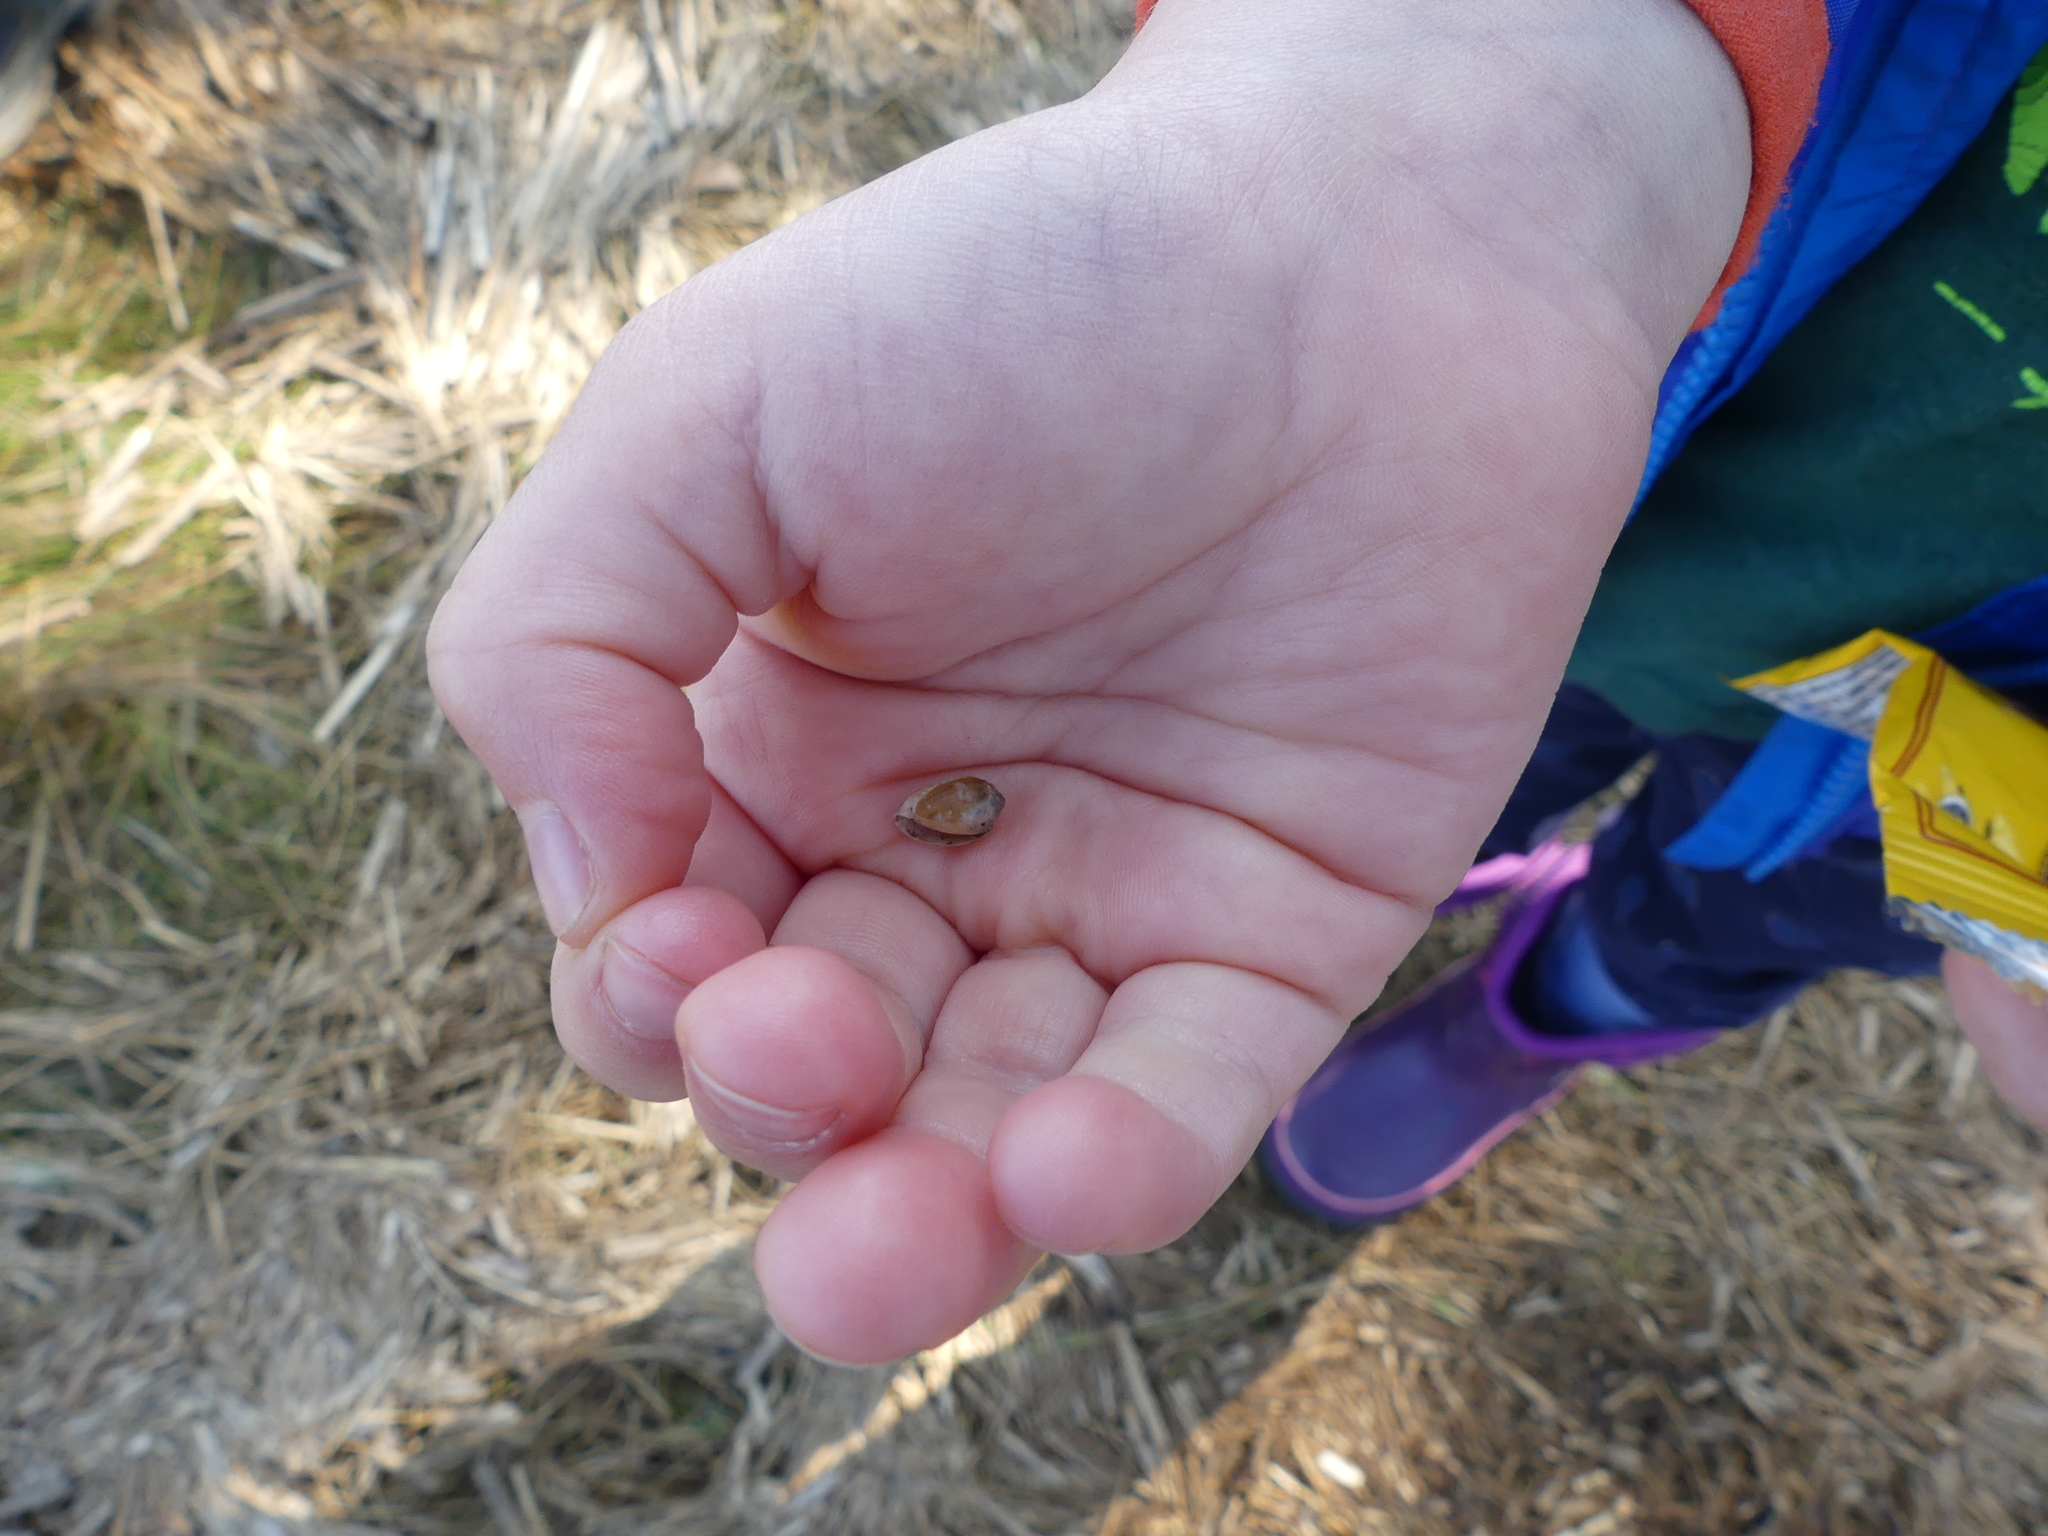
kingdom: Animalia
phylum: Mollusca
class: Gastropoda
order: Ellobiida
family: Ellobiidae
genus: Melampus
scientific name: Melampus bidentatus
